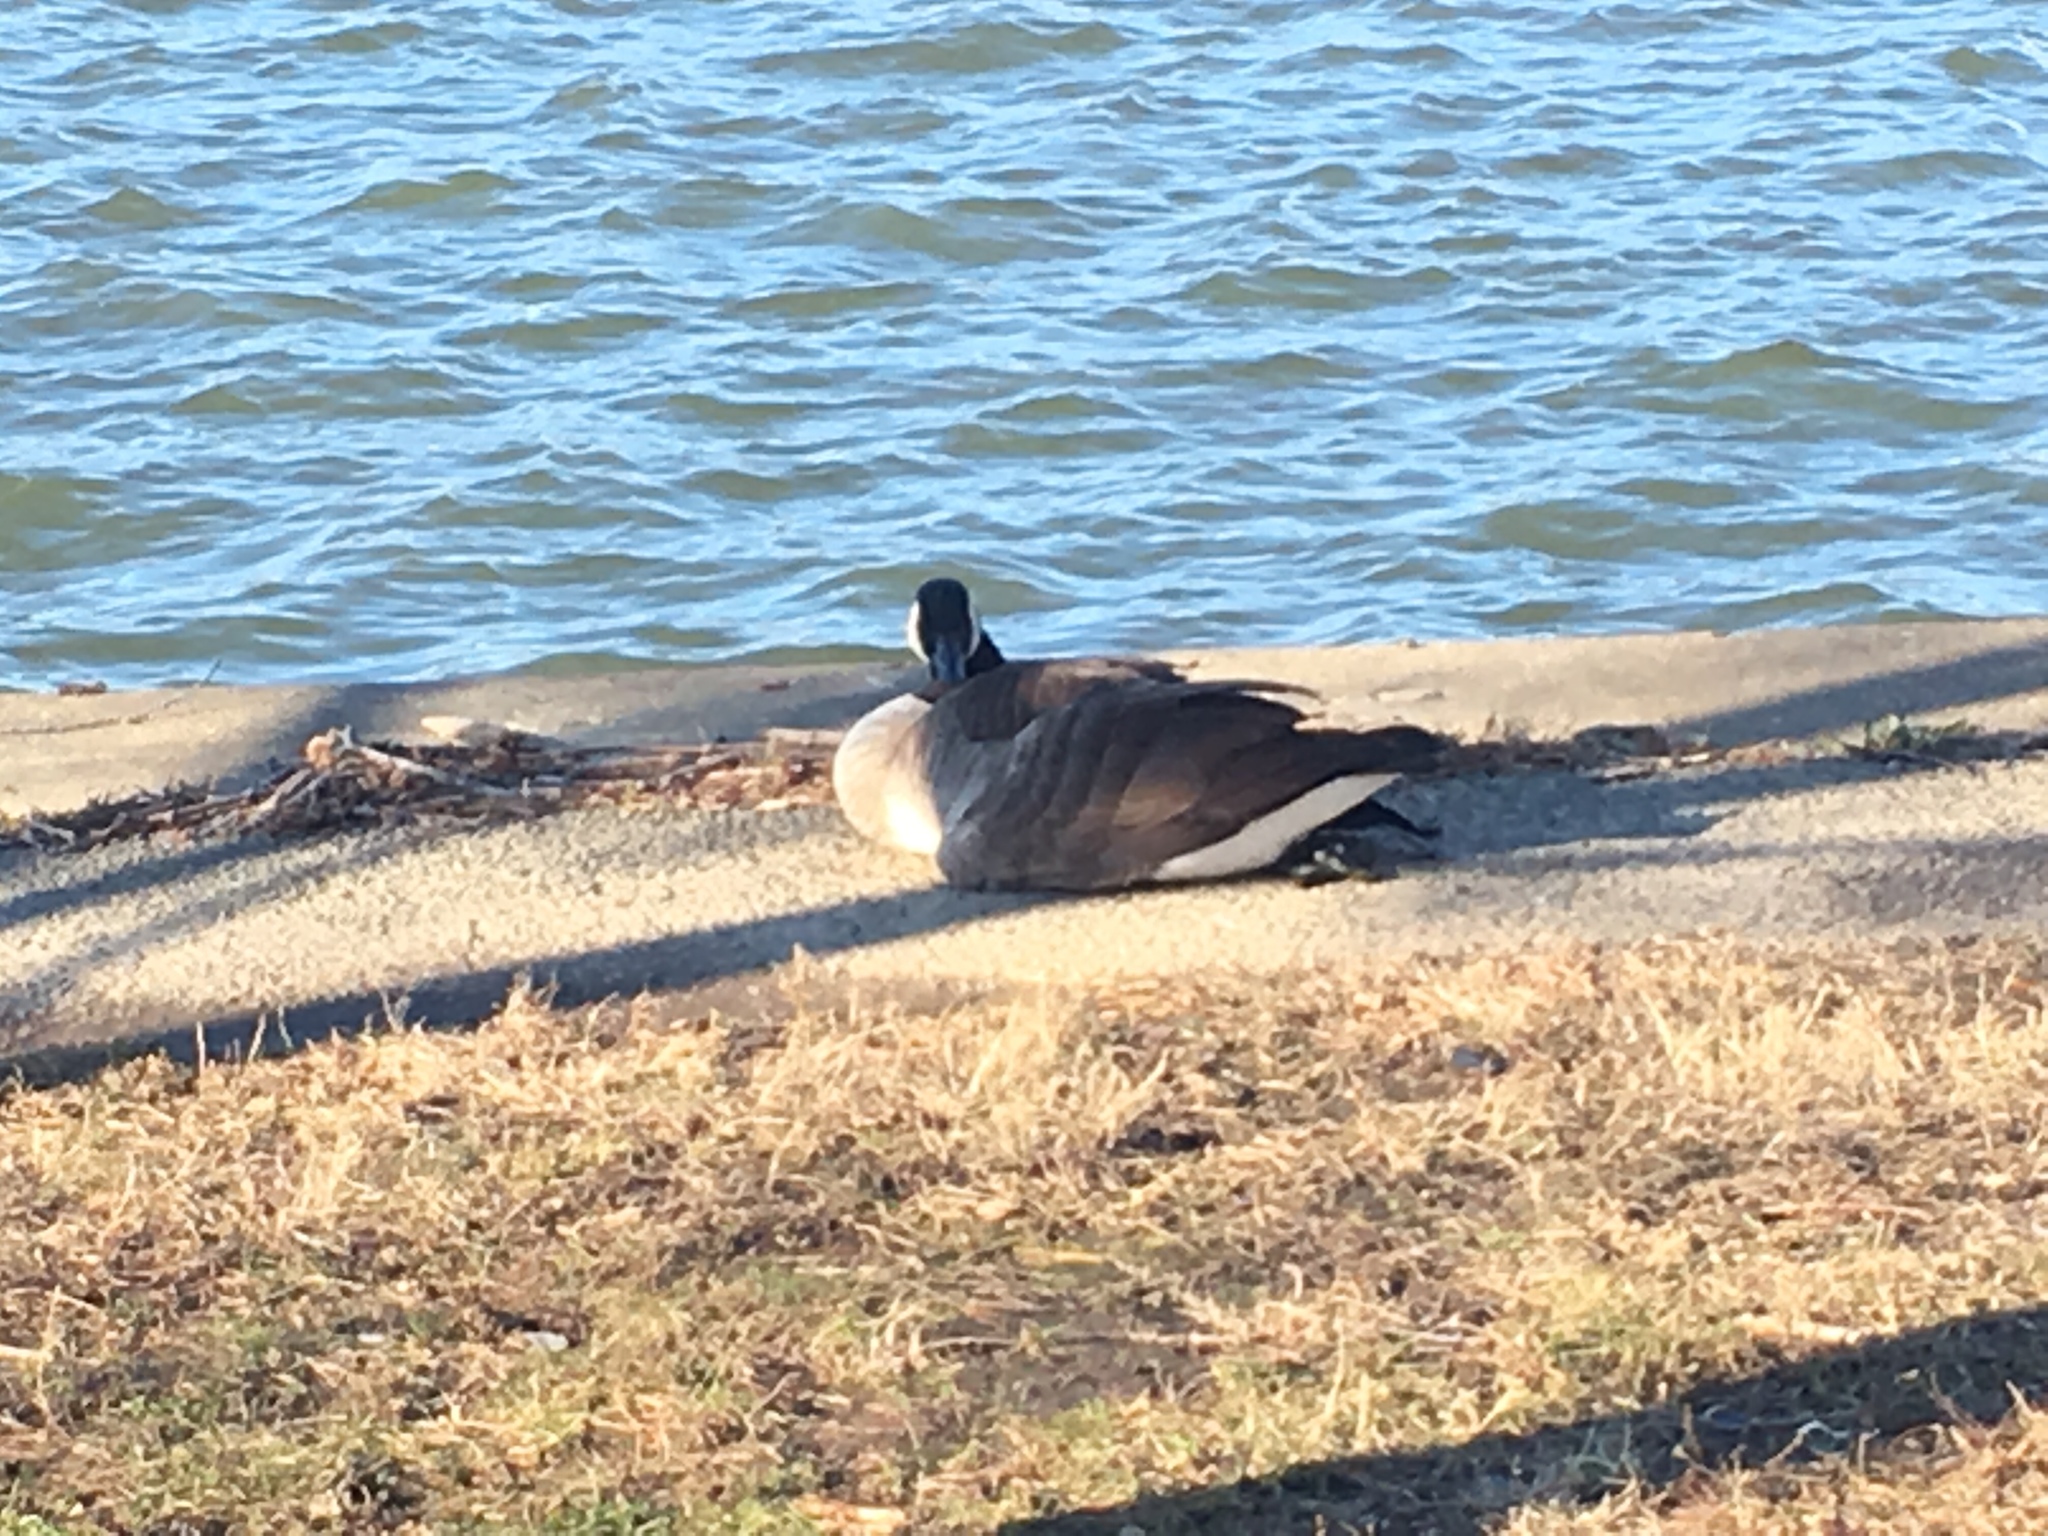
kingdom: Animalia
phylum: Chordata
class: Aves
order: Anseriformes
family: Anatidae
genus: Branta
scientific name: Branta canadensis
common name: Canada goose
